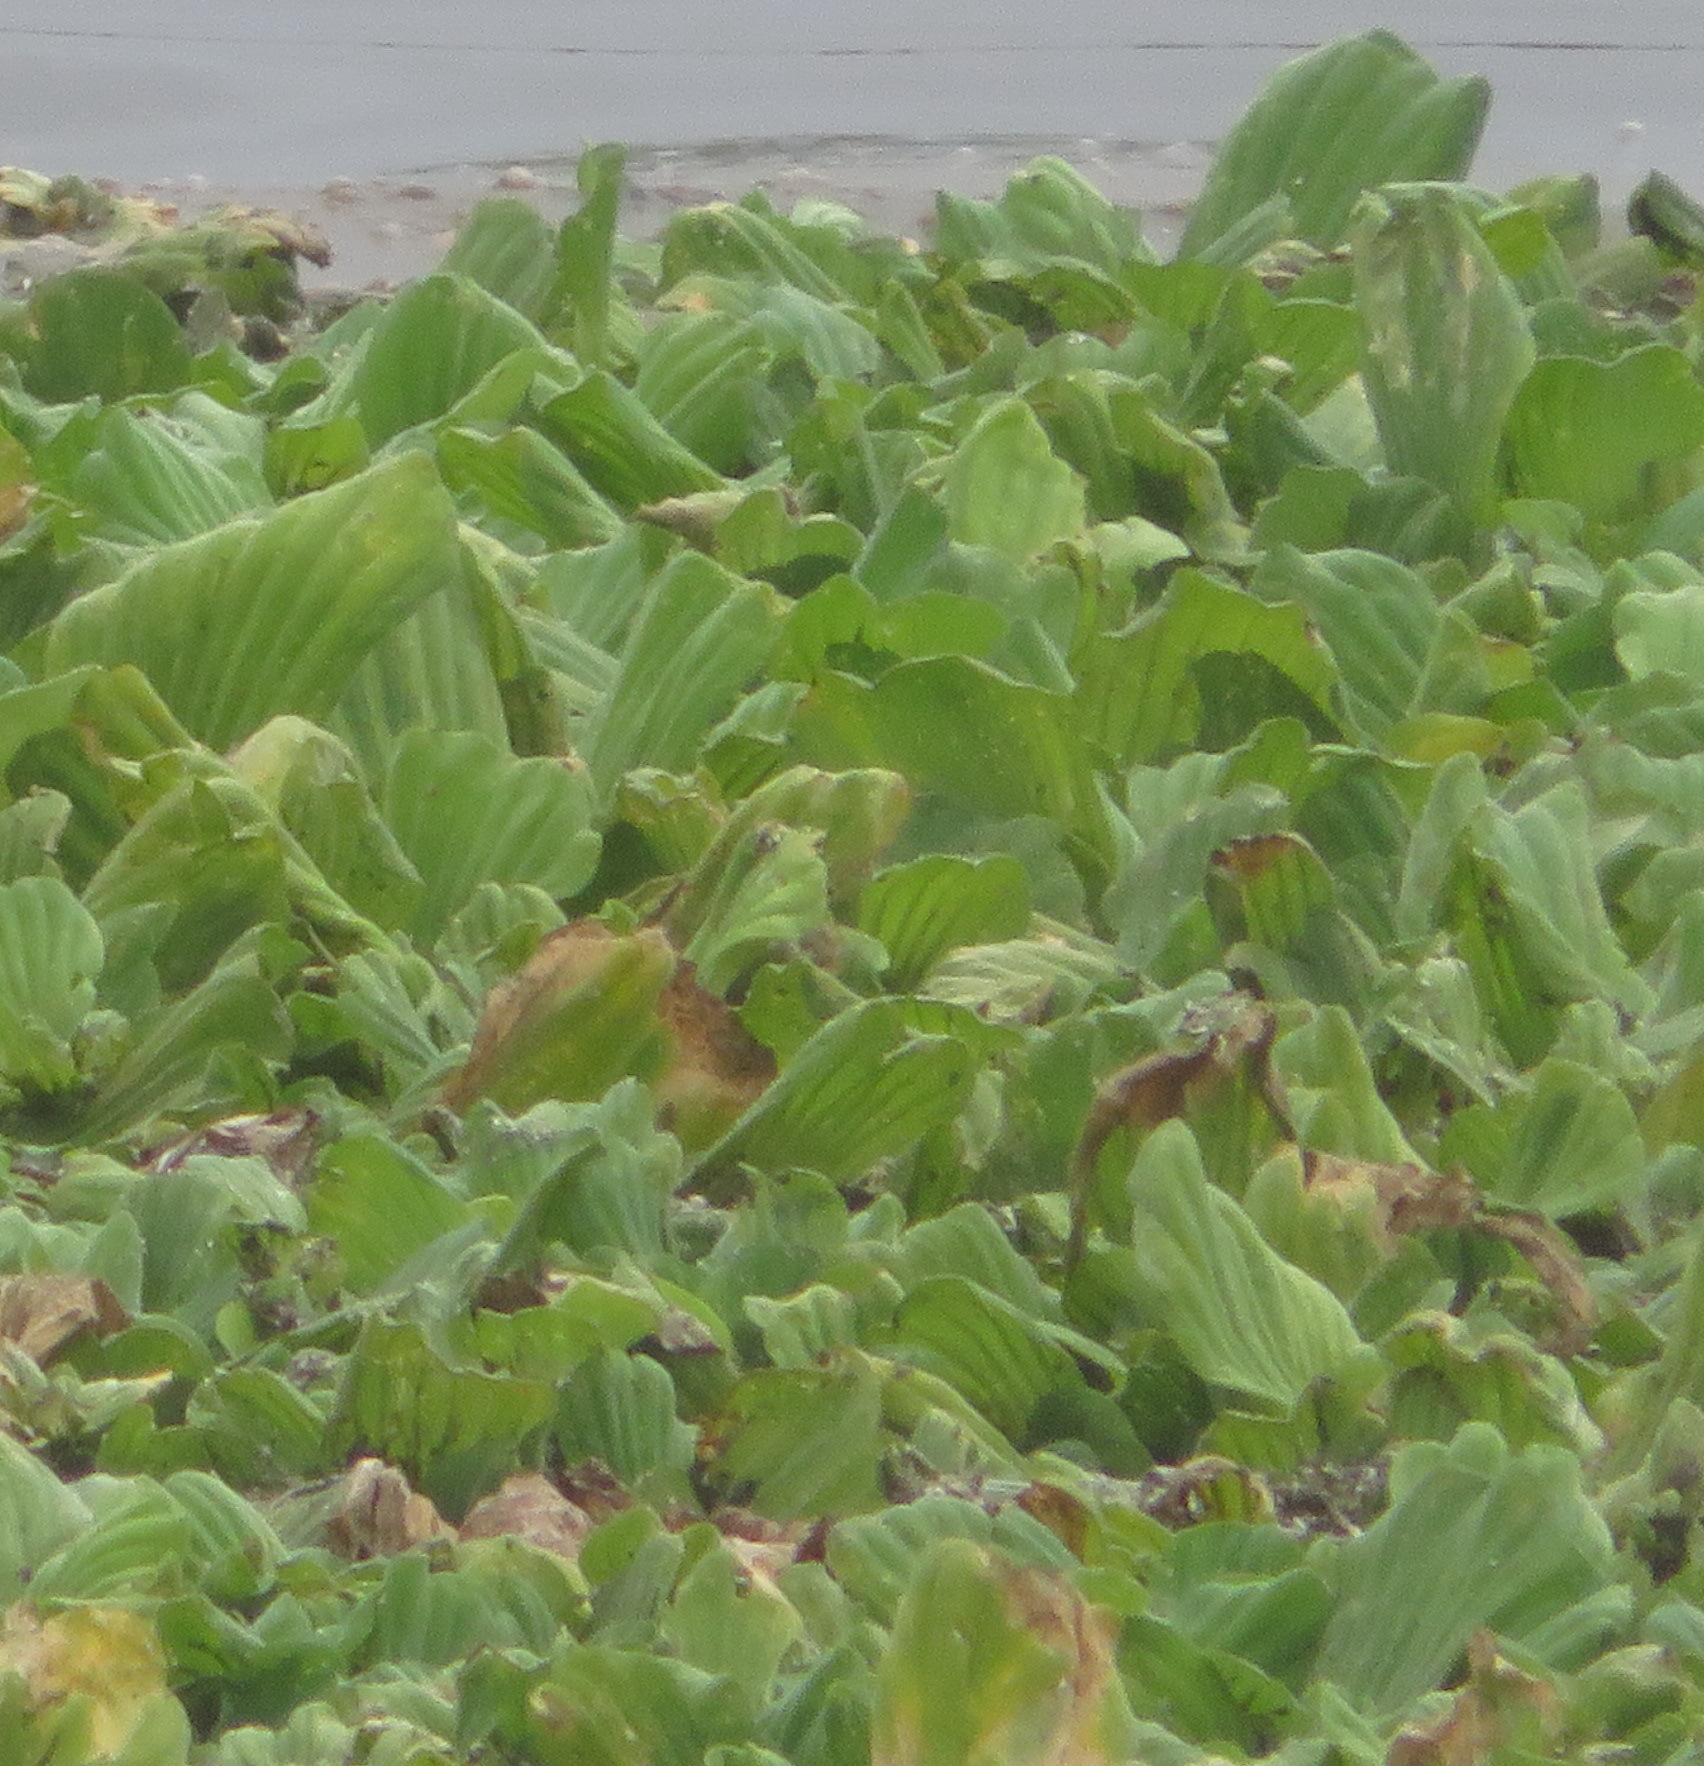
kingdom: Plantae
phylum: Tracheophyta
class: Liliopsida
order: Alismatales
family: Araceae
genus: Pistia
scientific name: Pistia stratiotes
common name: Water lettuce
